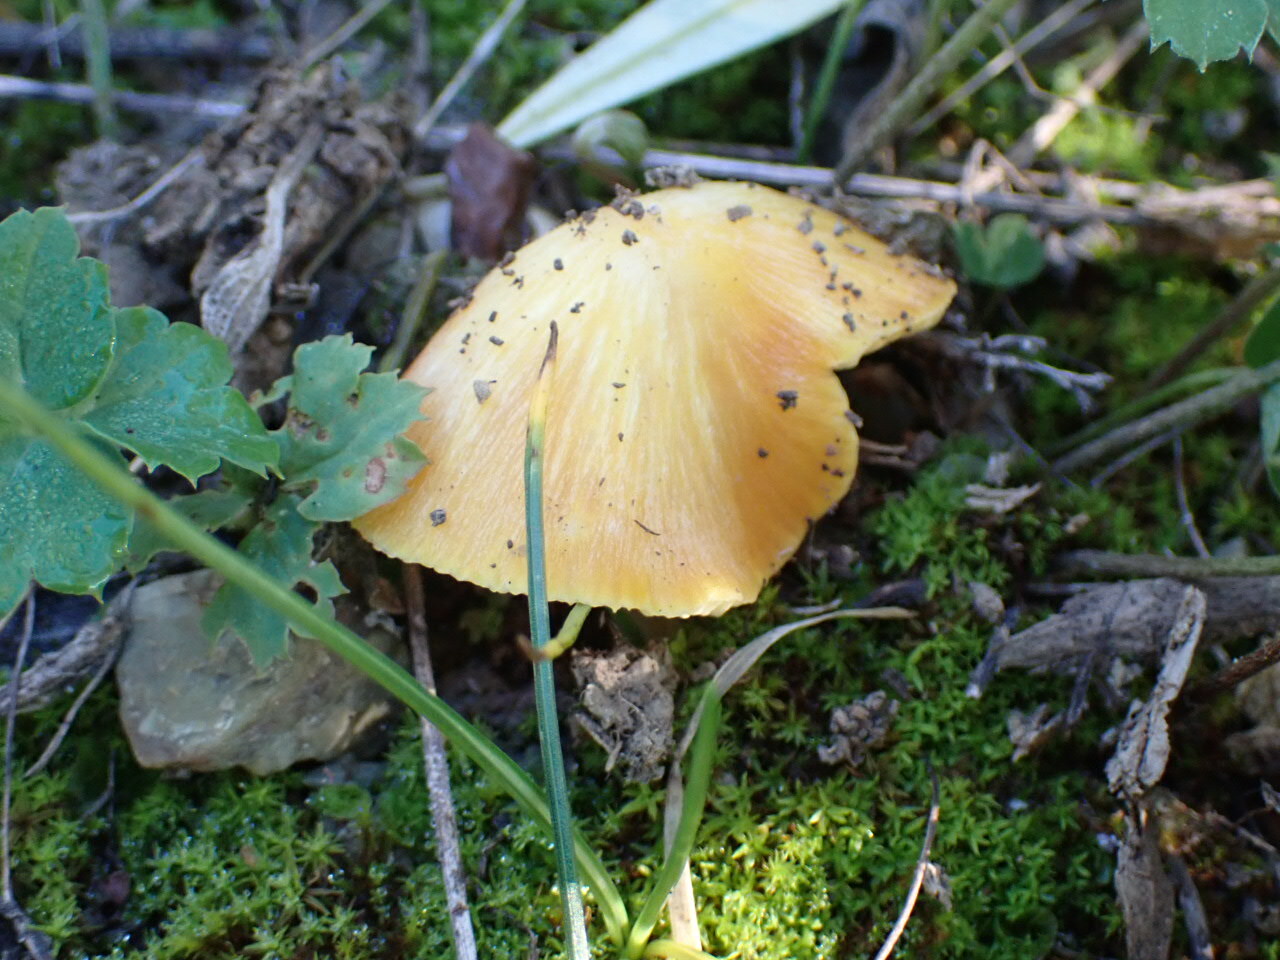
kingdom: Fungi
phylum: Basidiomycota
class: Agaricomycetes
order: Agaricales
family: Hygrophoraceae
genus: Hygrocybe
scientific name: Hygrocybe acutoconica
